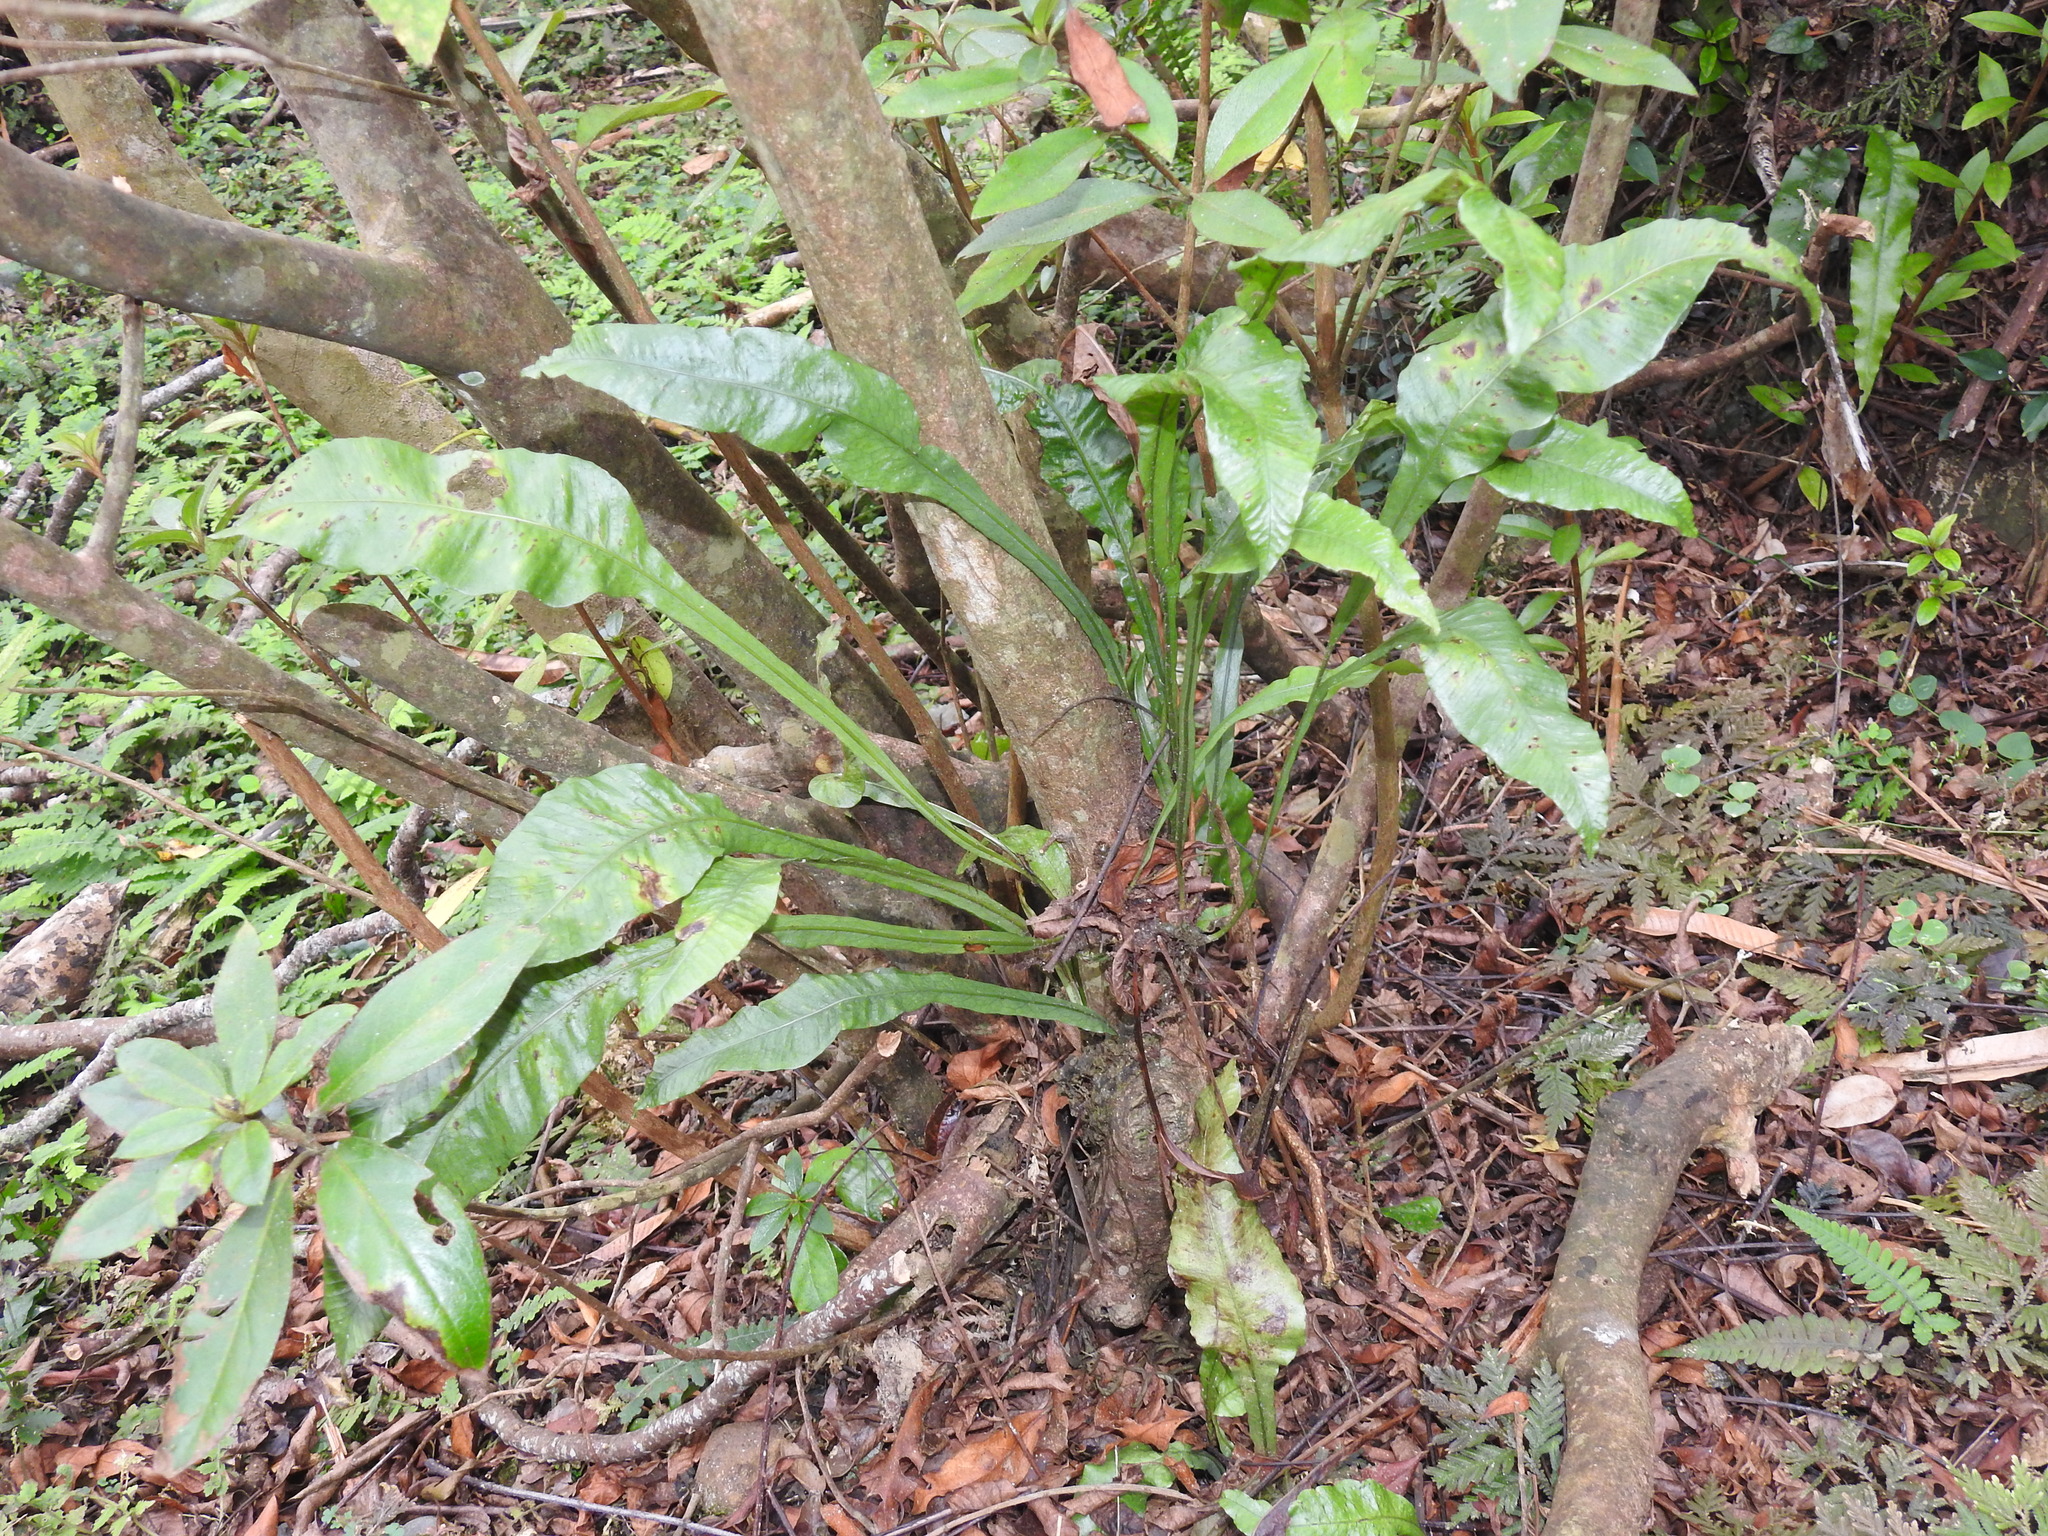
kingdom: Plantae
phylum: Tracheophyta
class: Polypodiopsida
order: Polypodiales
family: Polypodiaceae
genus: Leptochilus
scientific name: Leptochilus wrightii
